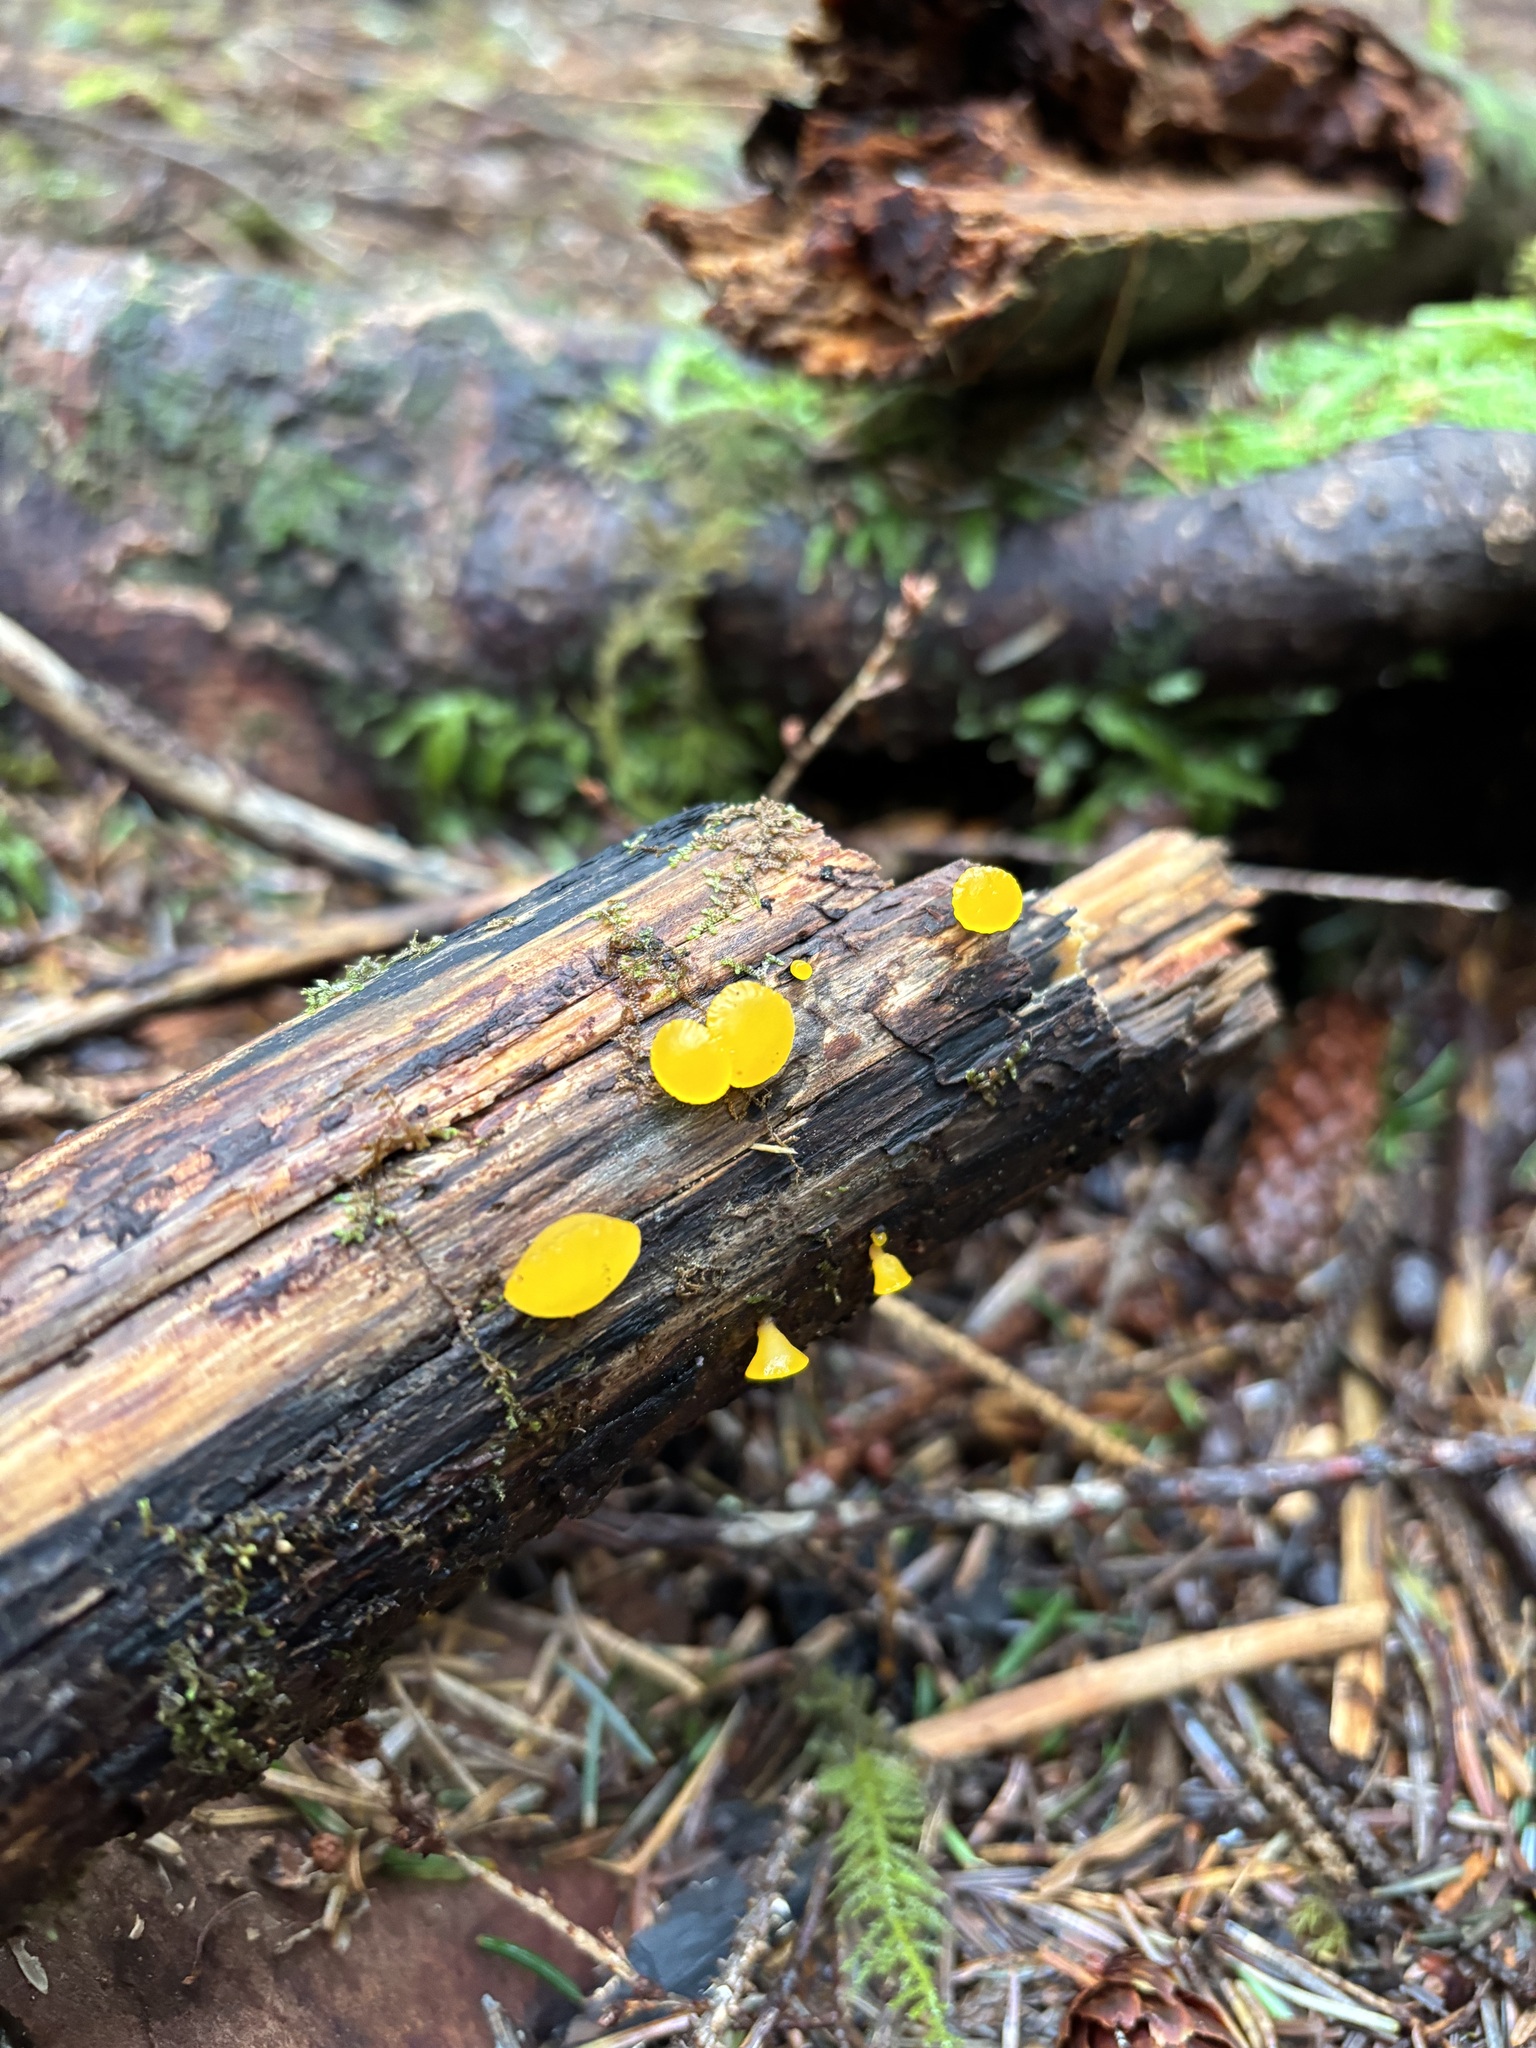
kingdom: Fungi
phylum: Basidiomycota
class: Dacrymycetes
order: Dacrymycetales
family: Dacrymycetaceae
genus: Guepiniopsis
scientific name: Guepiniopsis alpina
